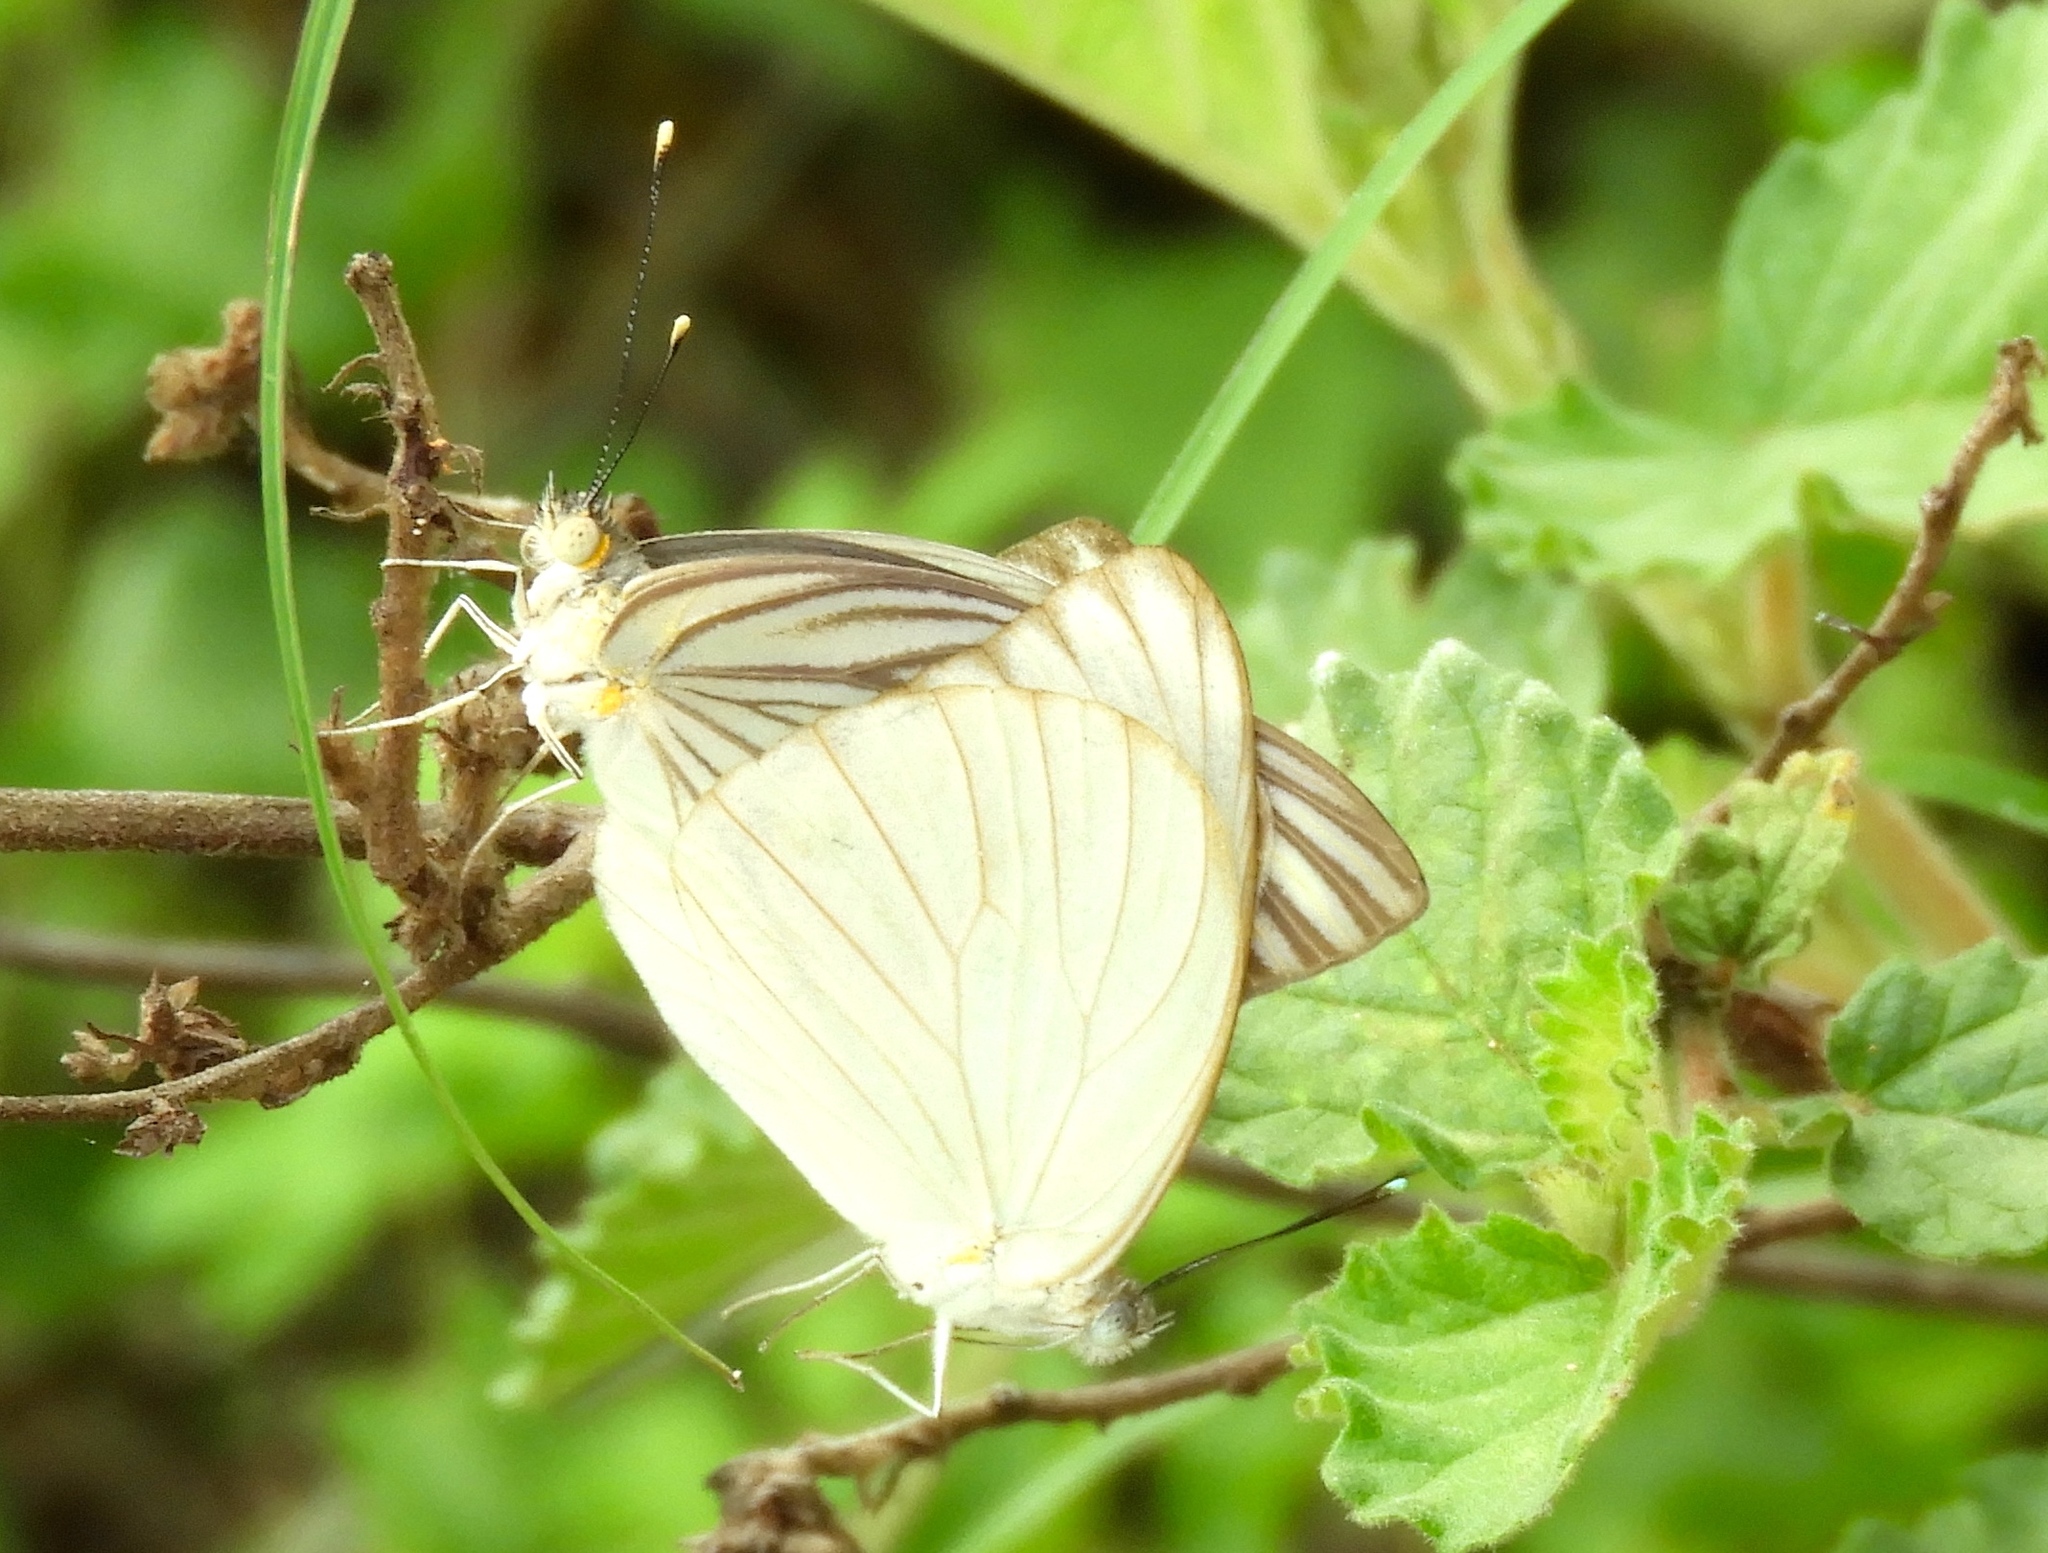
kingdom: Animalia
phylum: Arthropoda
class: Insecta
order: Lepidoptera
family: Pieridae
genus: Ascia
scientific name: Ascia monuste
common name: Great southern white
